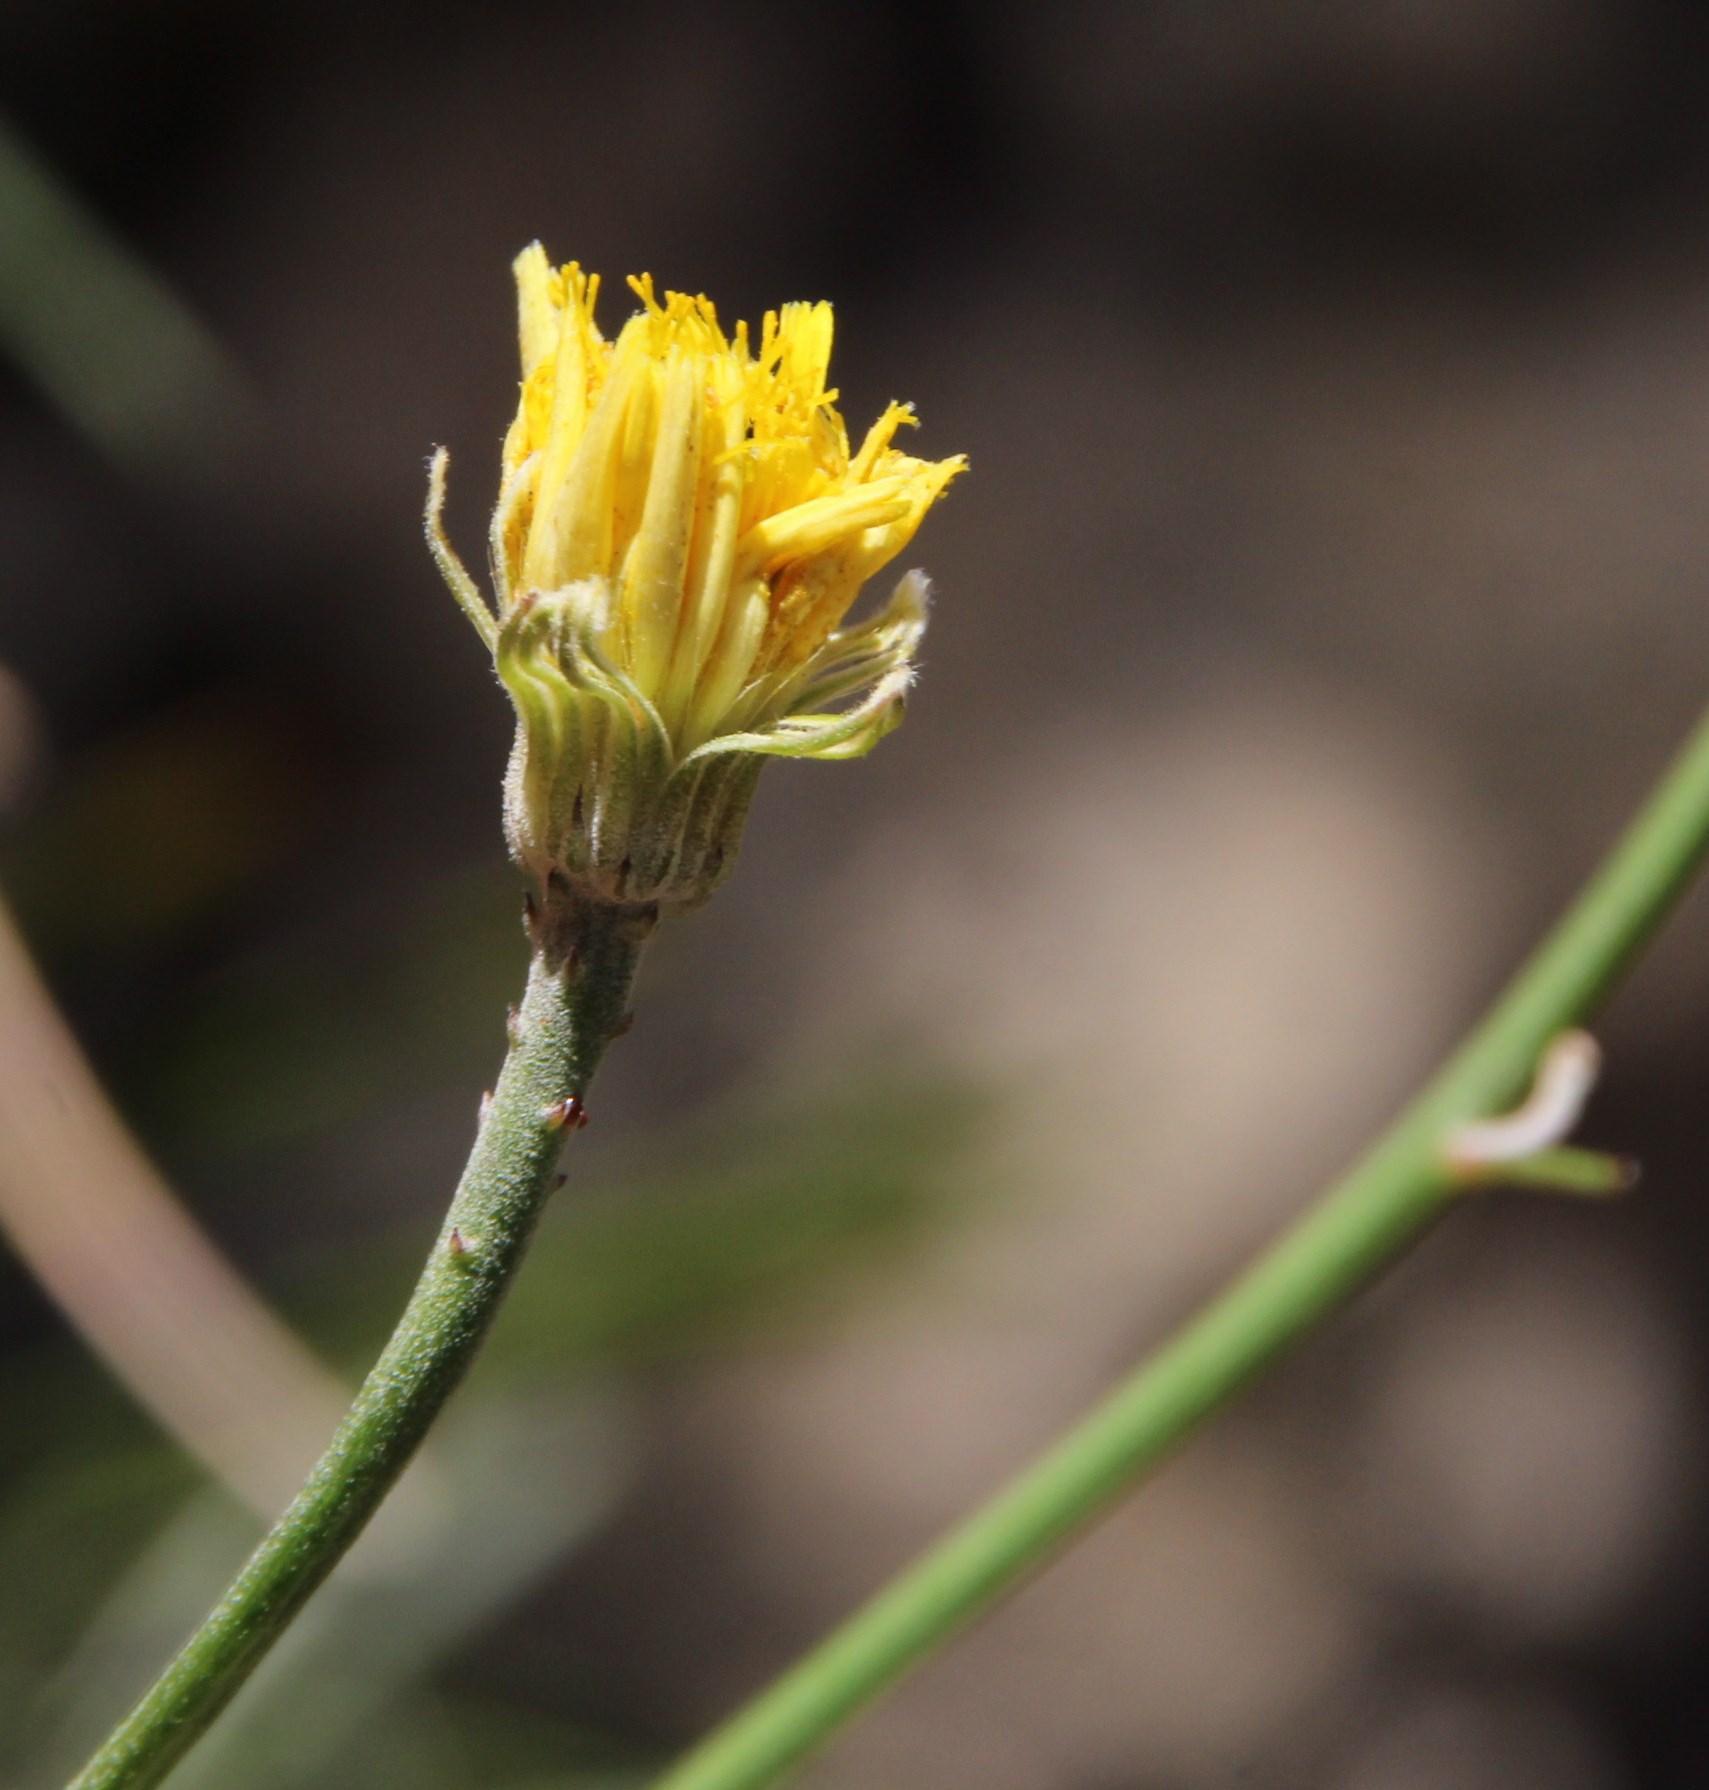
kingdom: Plantae
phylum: Tracheophyta
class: Magnoliopsida
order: Asterales
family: Asteraceae
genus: Tolpis
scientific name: Tolpis succulenta
